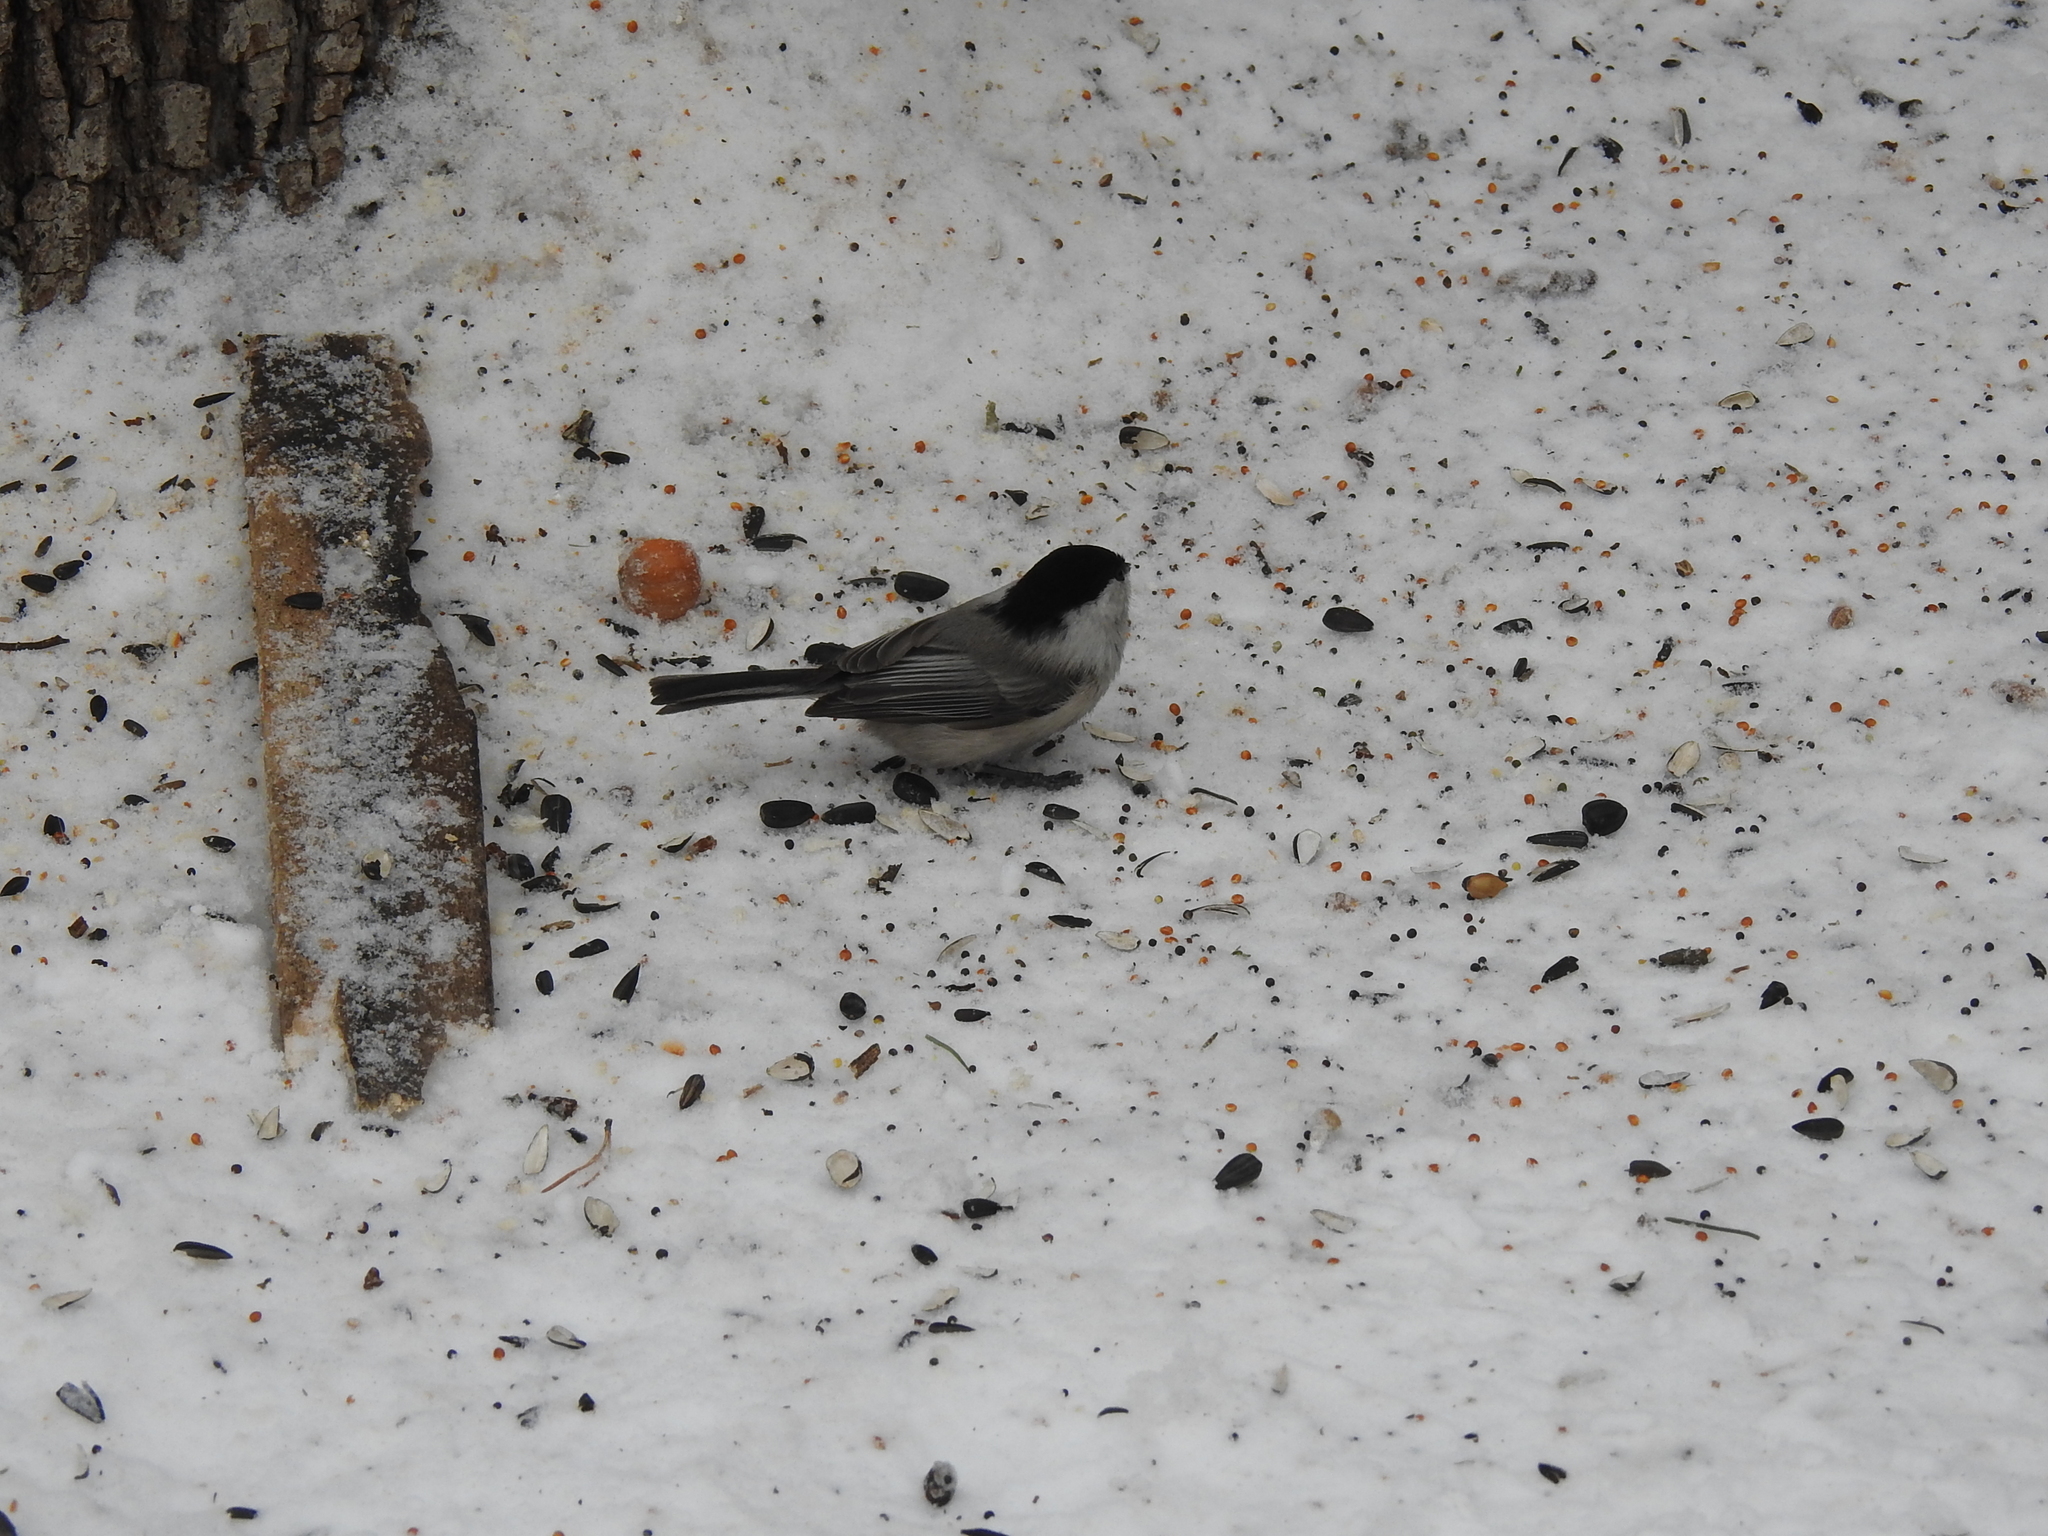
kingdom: Animalia
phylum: Chordata
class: Aves
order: Passeriformes
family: Paridae
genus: Poecile
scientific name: Poecile montanus
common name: Willow tit
